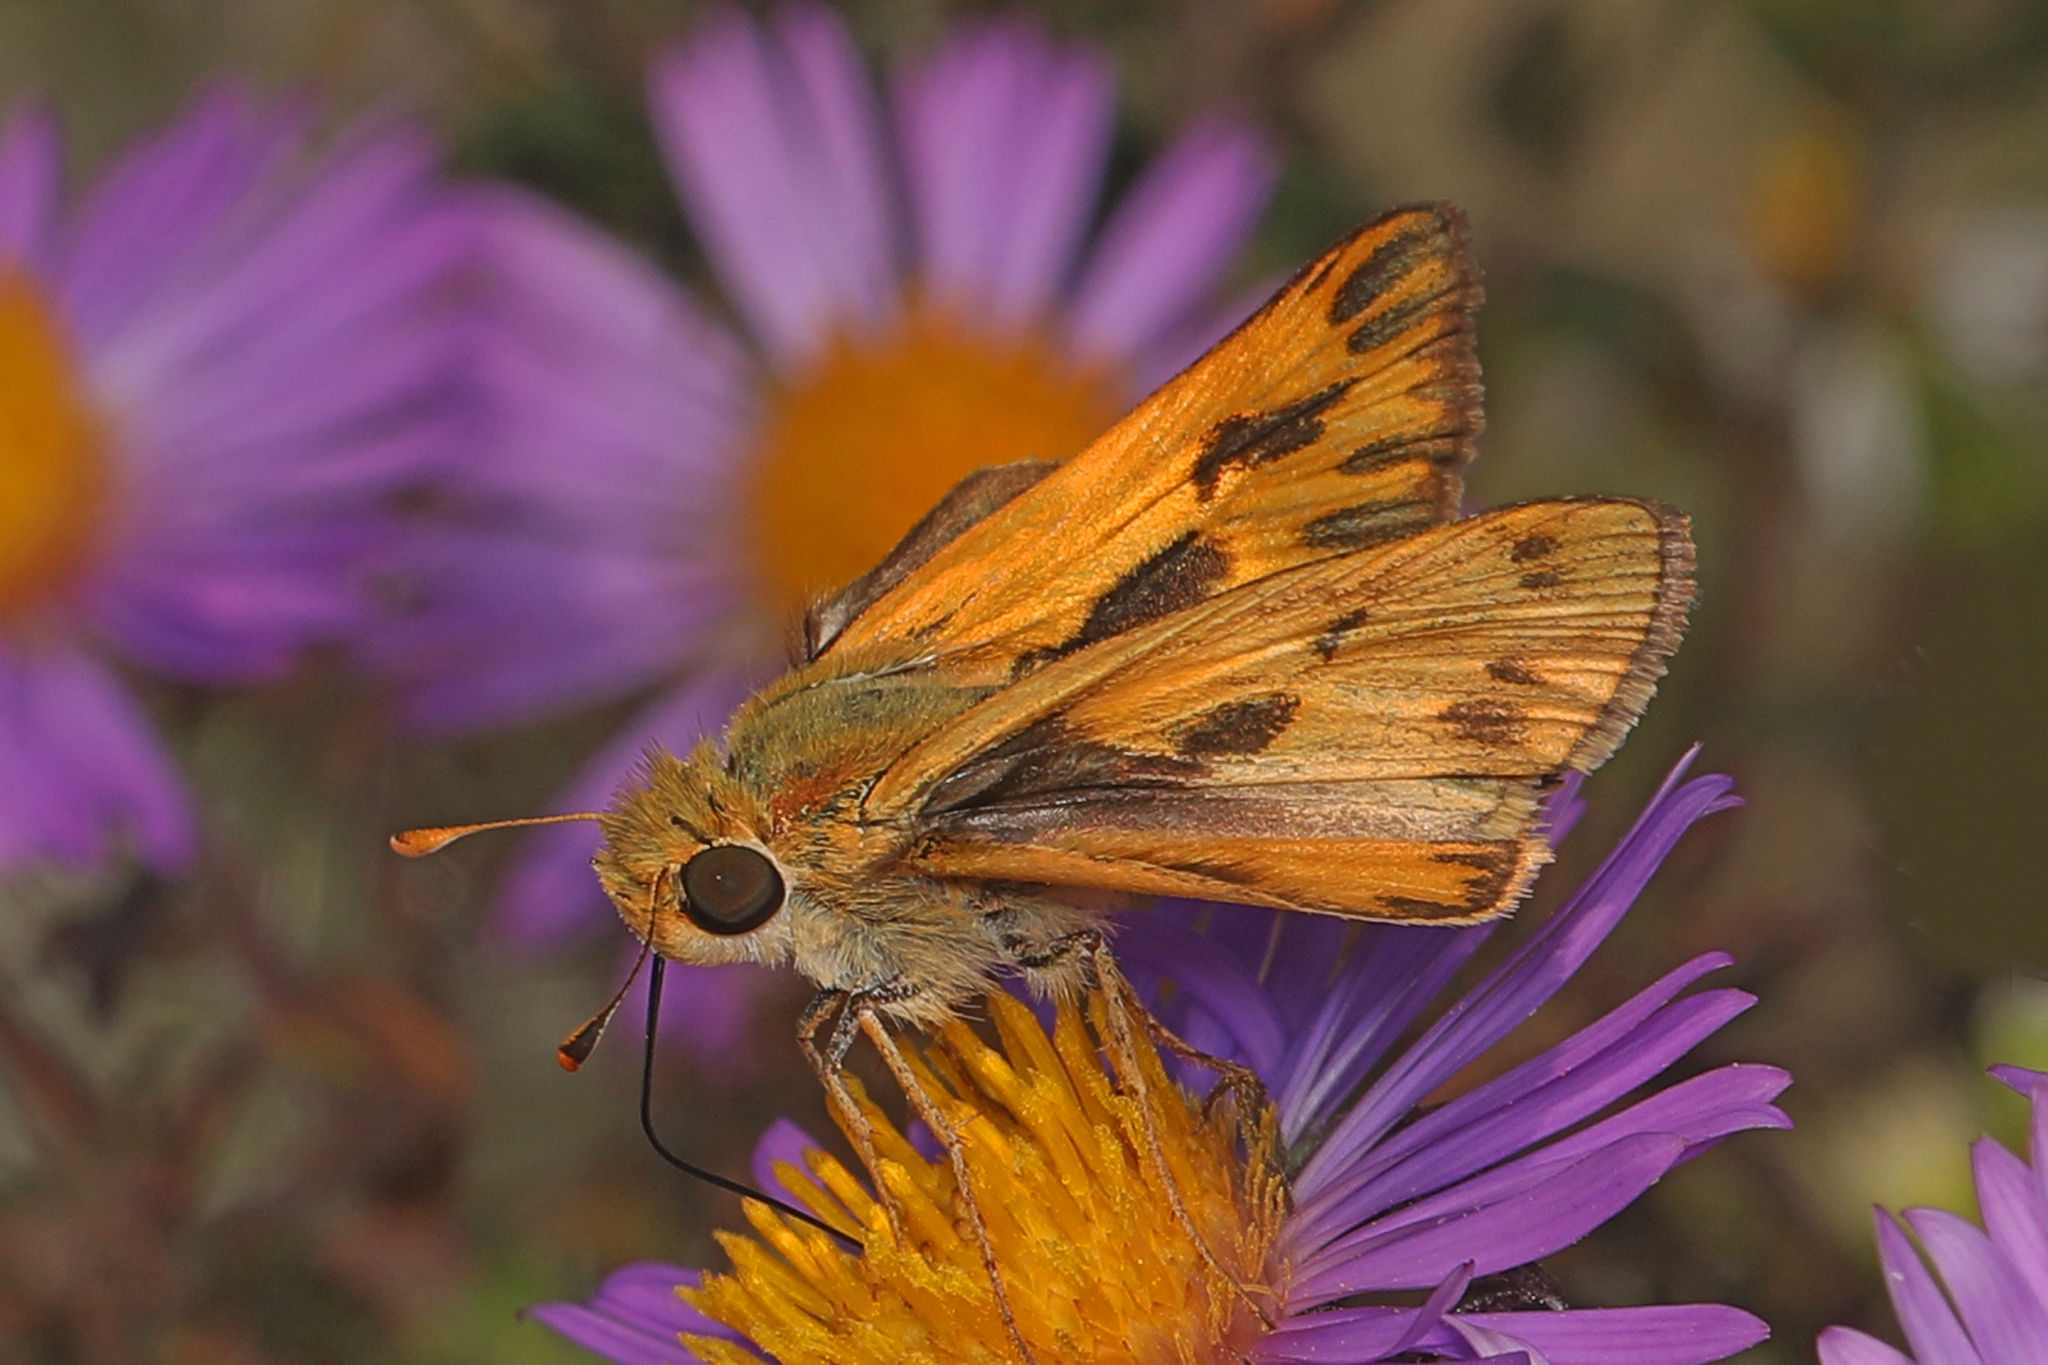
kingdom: Animalia
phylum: Arthropoda
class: Insecta
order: Lepidoptera
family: Hesperiidae
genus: Hylephila
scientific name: Hylephila phyleus
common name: Fiery skipper
